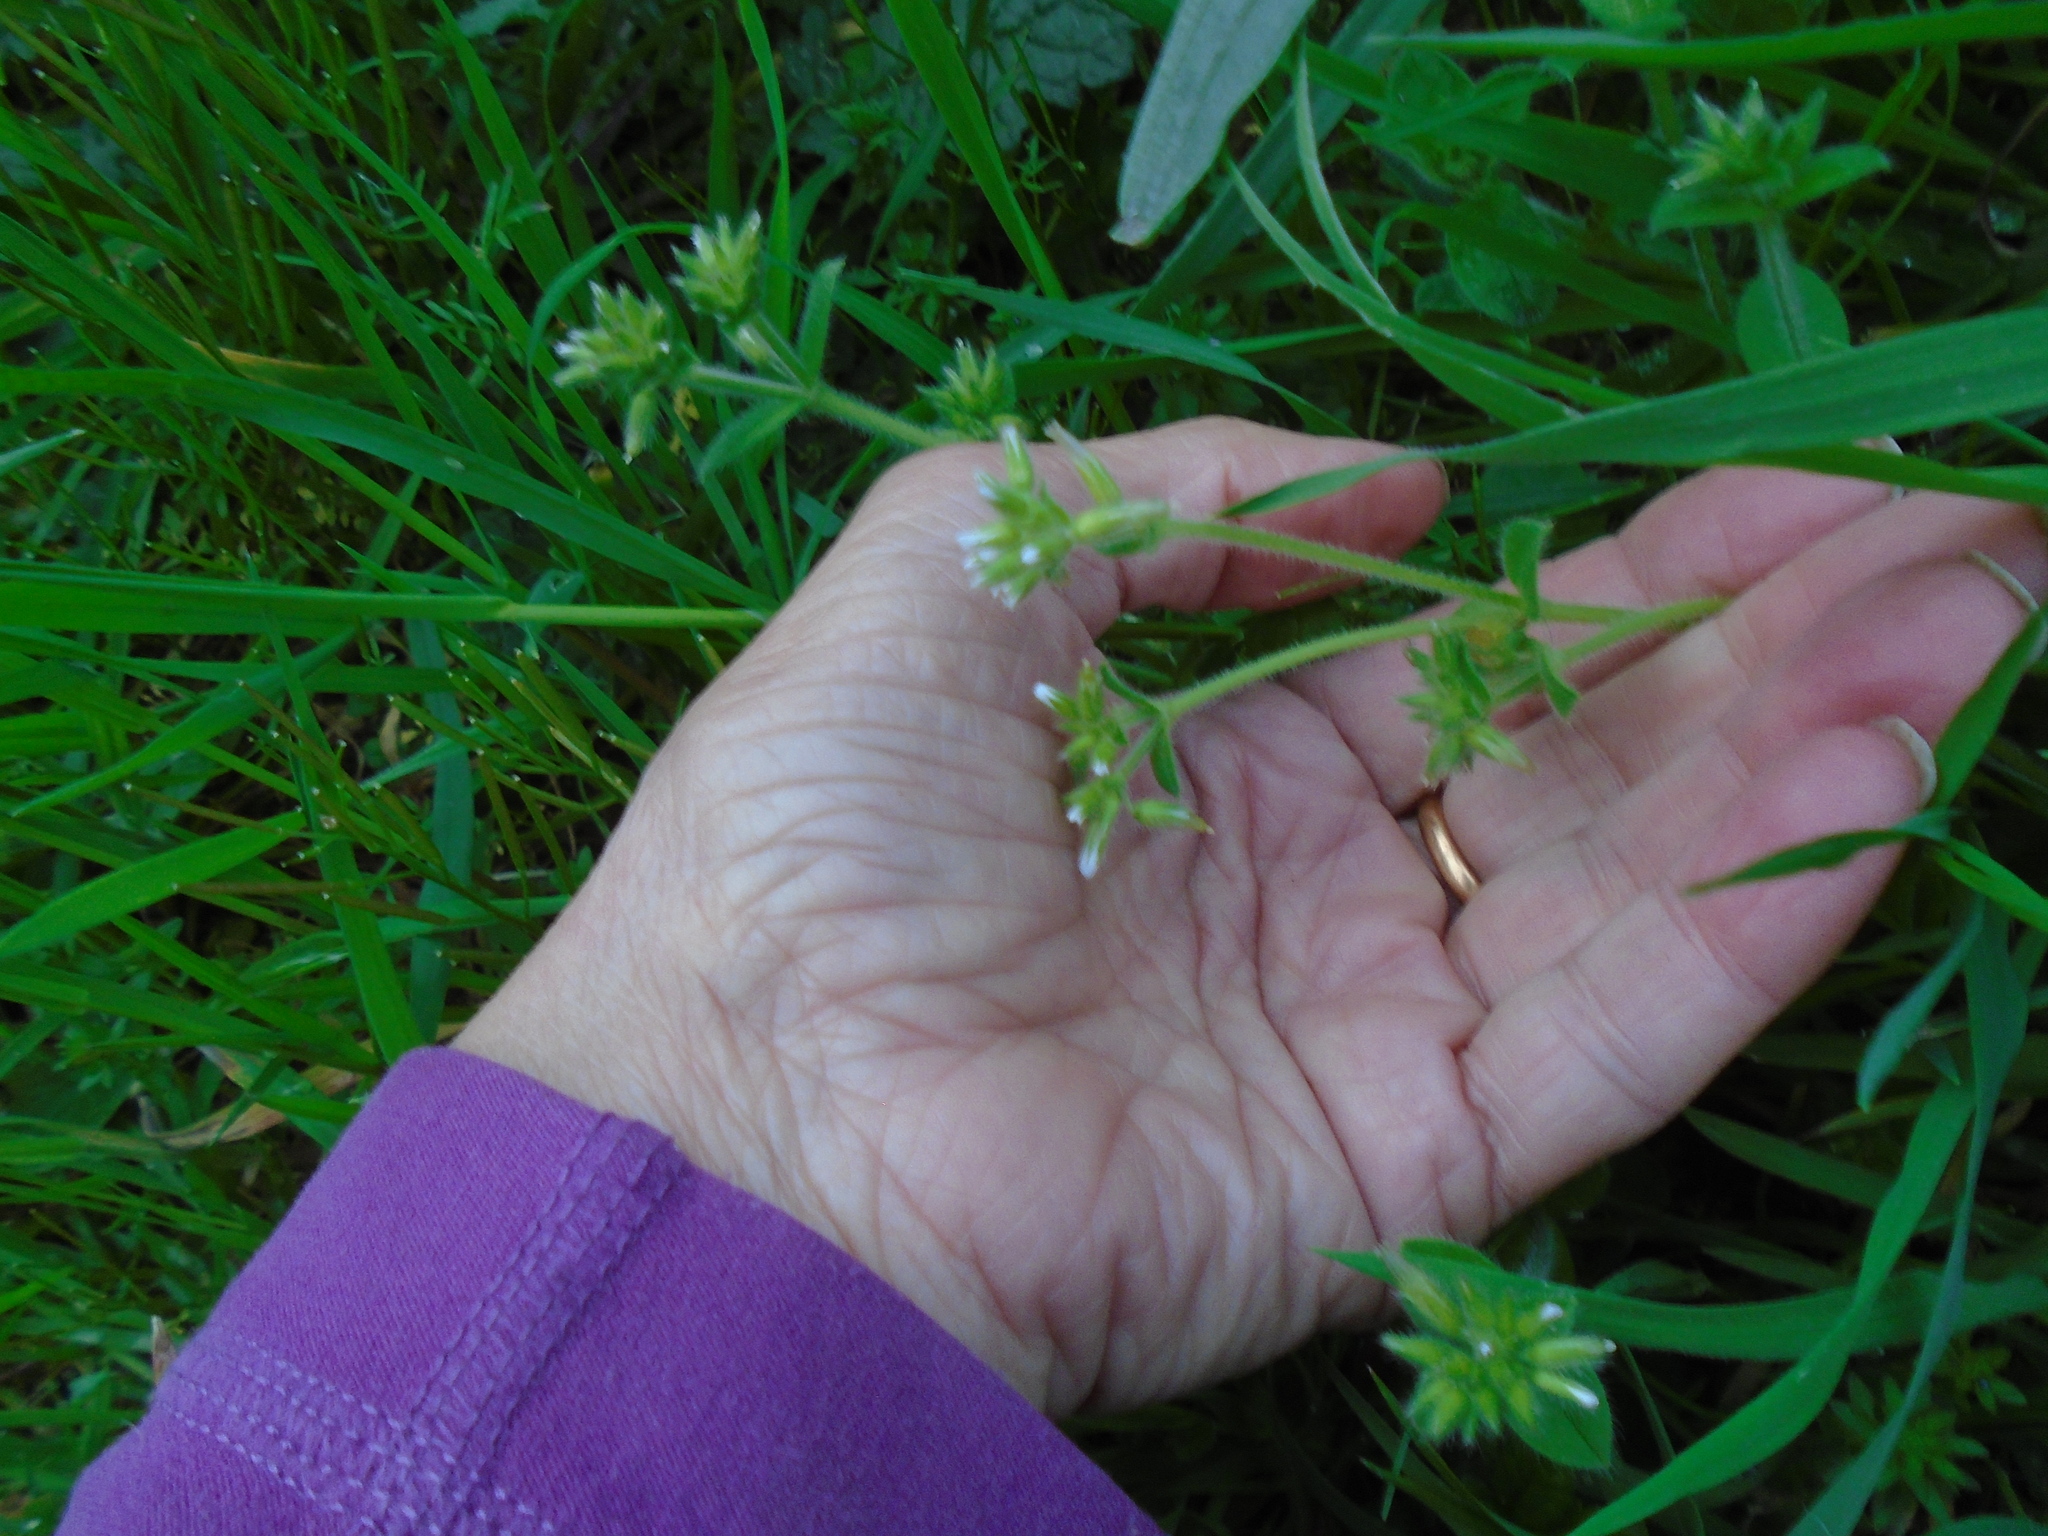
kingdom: Plantae
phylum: Tracheophyta
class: Magnoliopsida
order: Caryophyllales
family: Caryophyllaceae
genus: Cerastium
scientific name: Cerastium glomeratum
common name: Sticky chickweed
